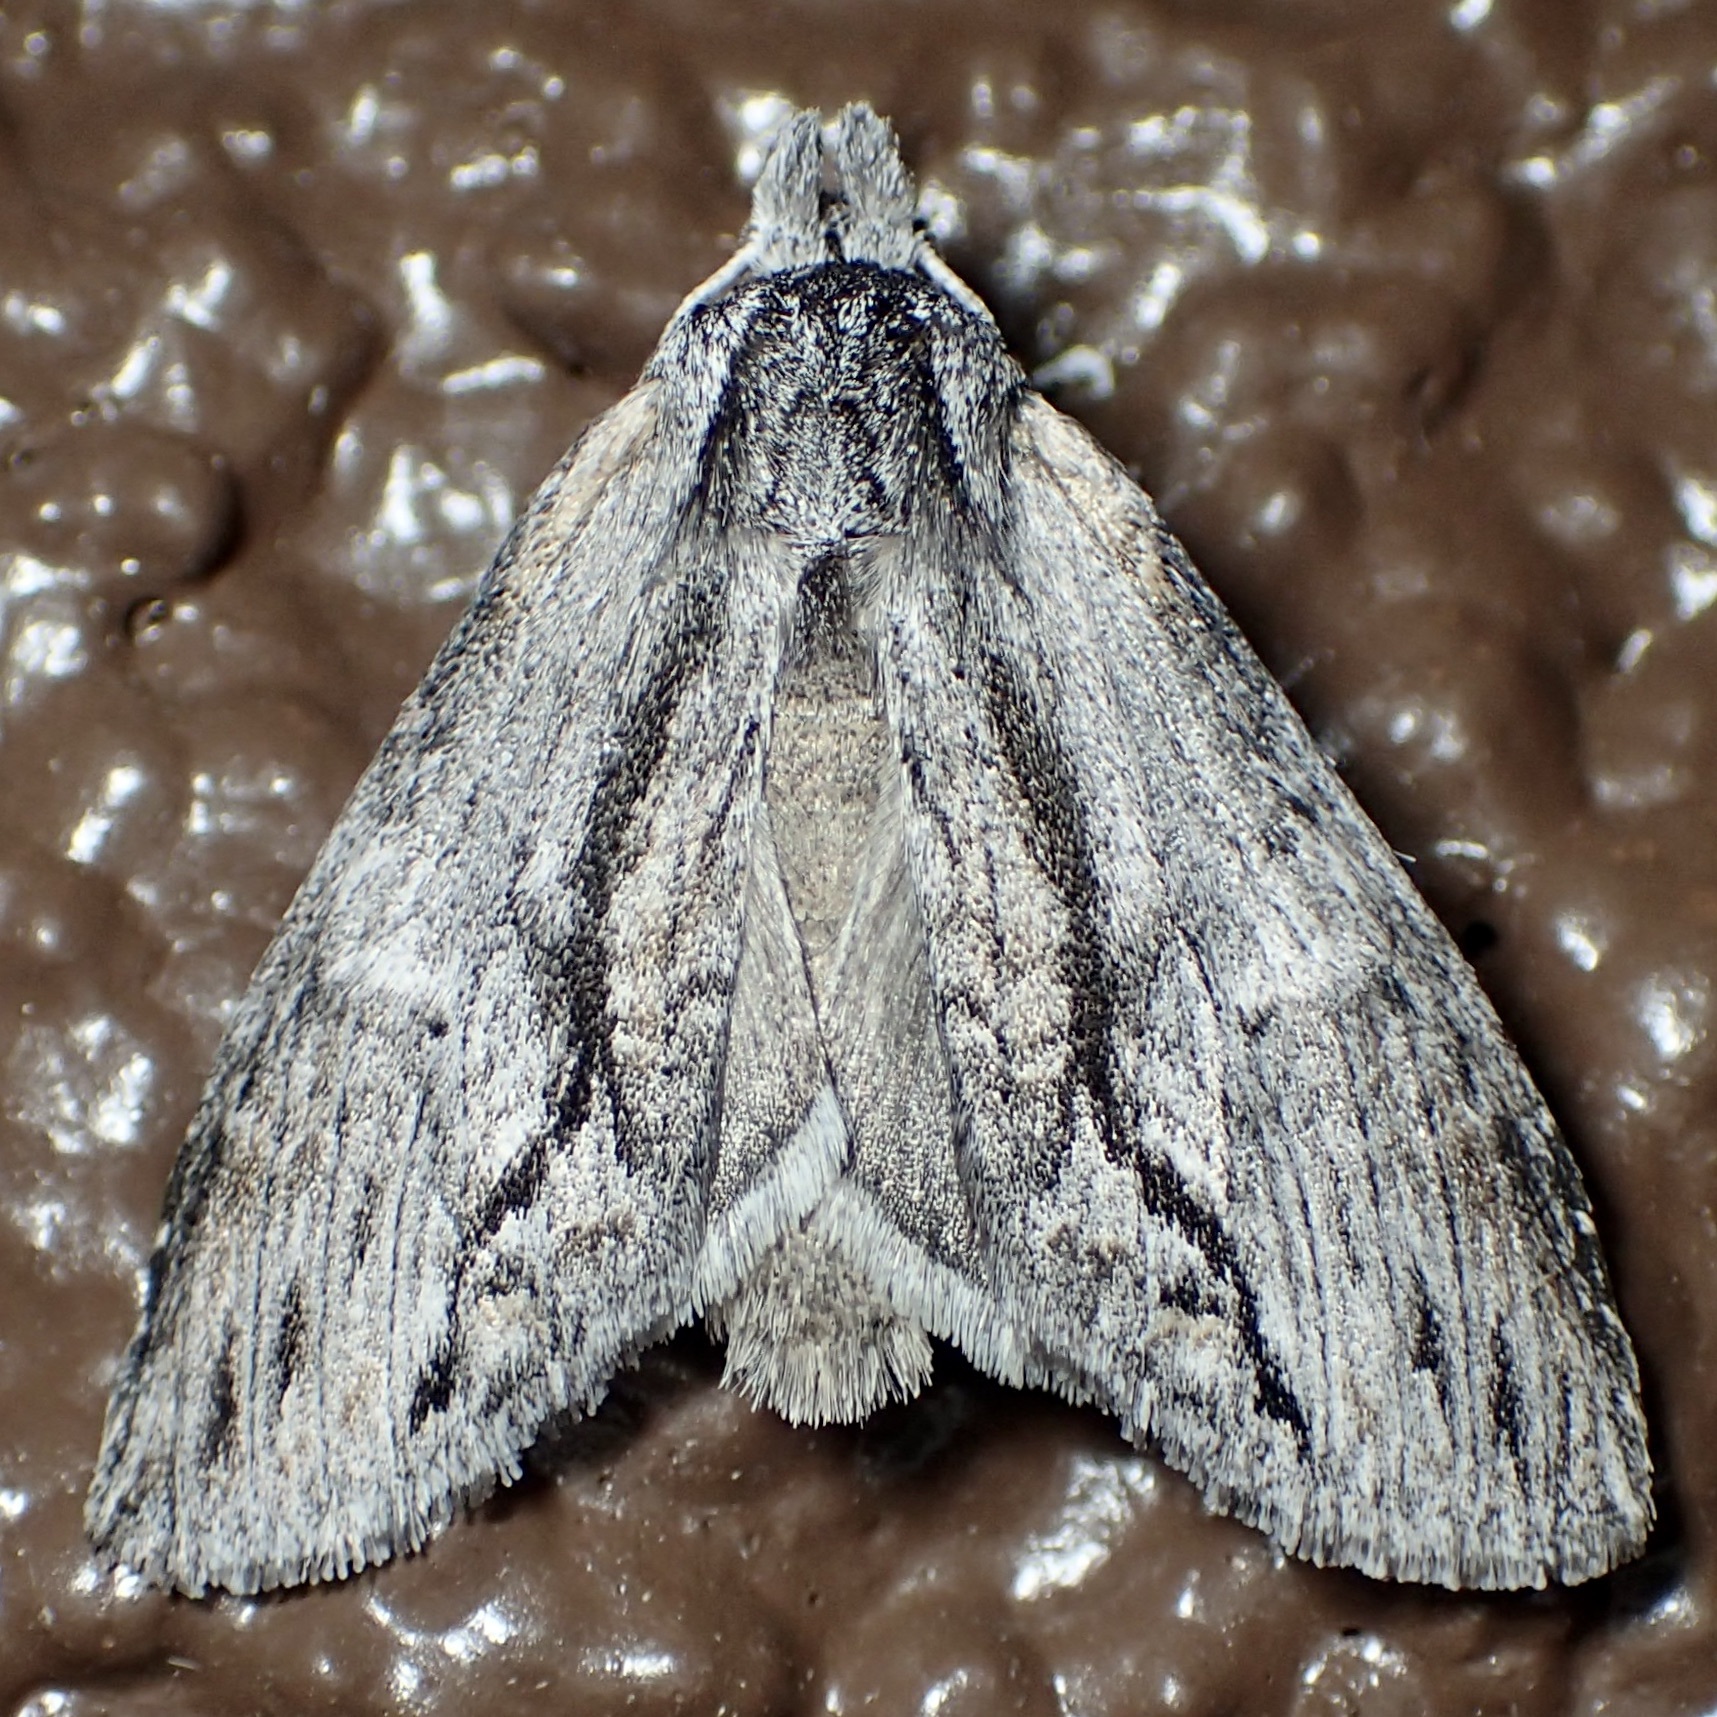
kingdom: Animalia
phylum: Arthropoda
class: Insecta
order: Lepidoptera
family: Notodontidae
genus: Notela
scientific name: Notela jaliscana
